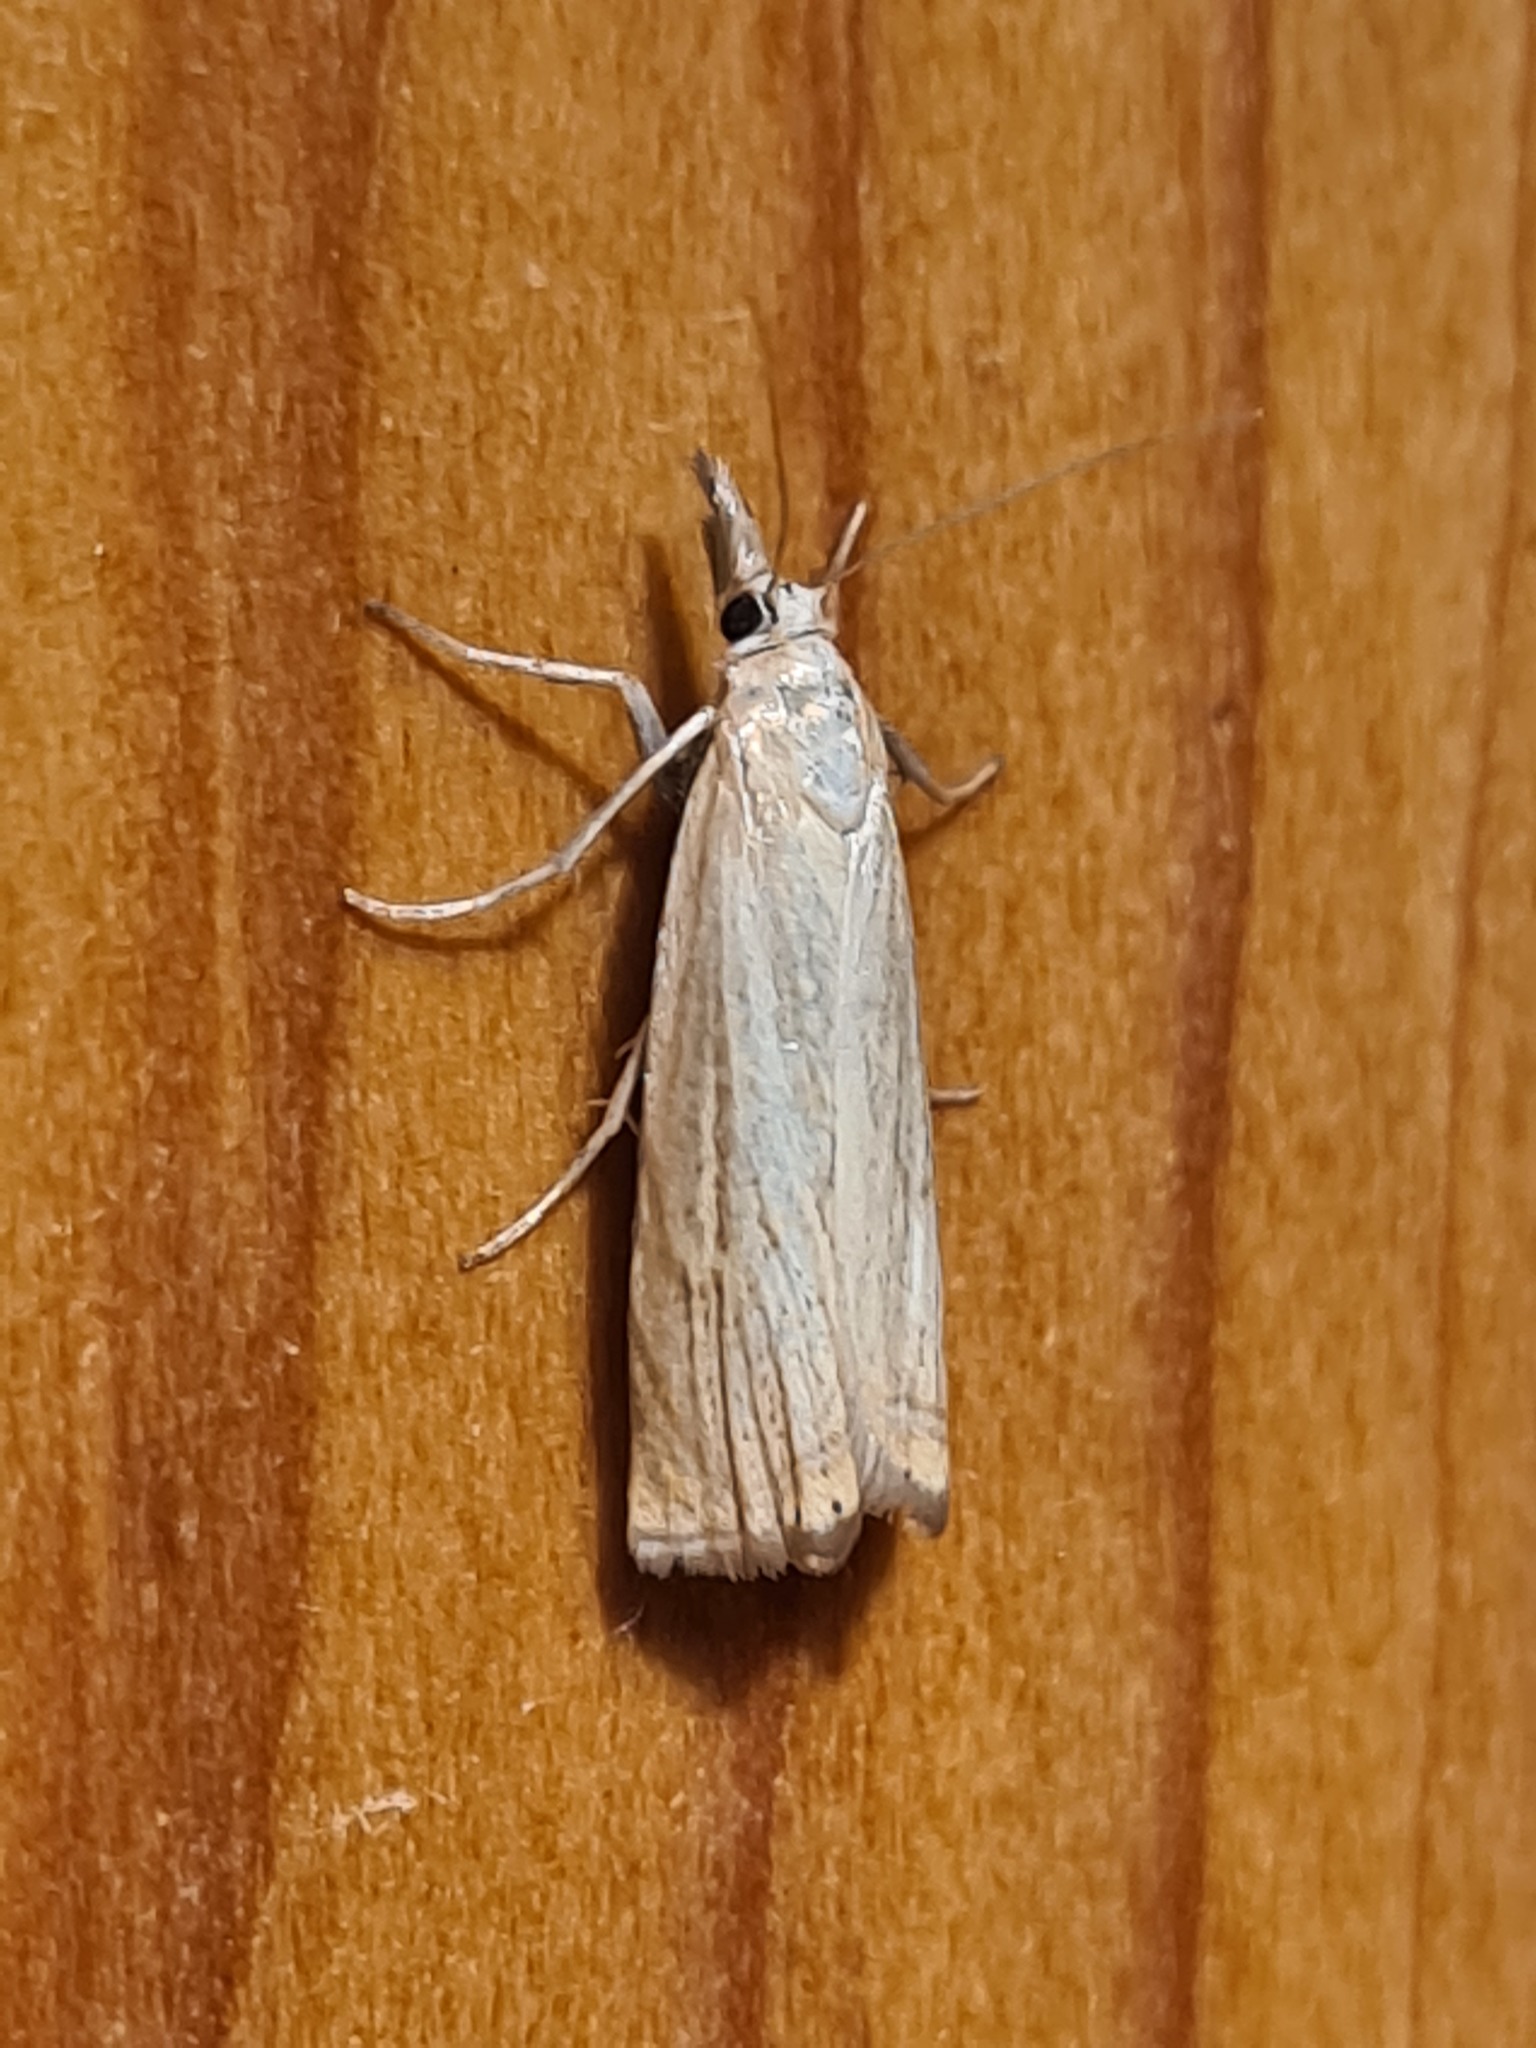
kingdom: Animalia
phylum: Arthropoda
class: Insecta
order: Lepidoptera
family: Crambidae
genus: Chrysoteuchia
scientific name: Chrysoteuchia culmella
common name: Garden grass-veneer
